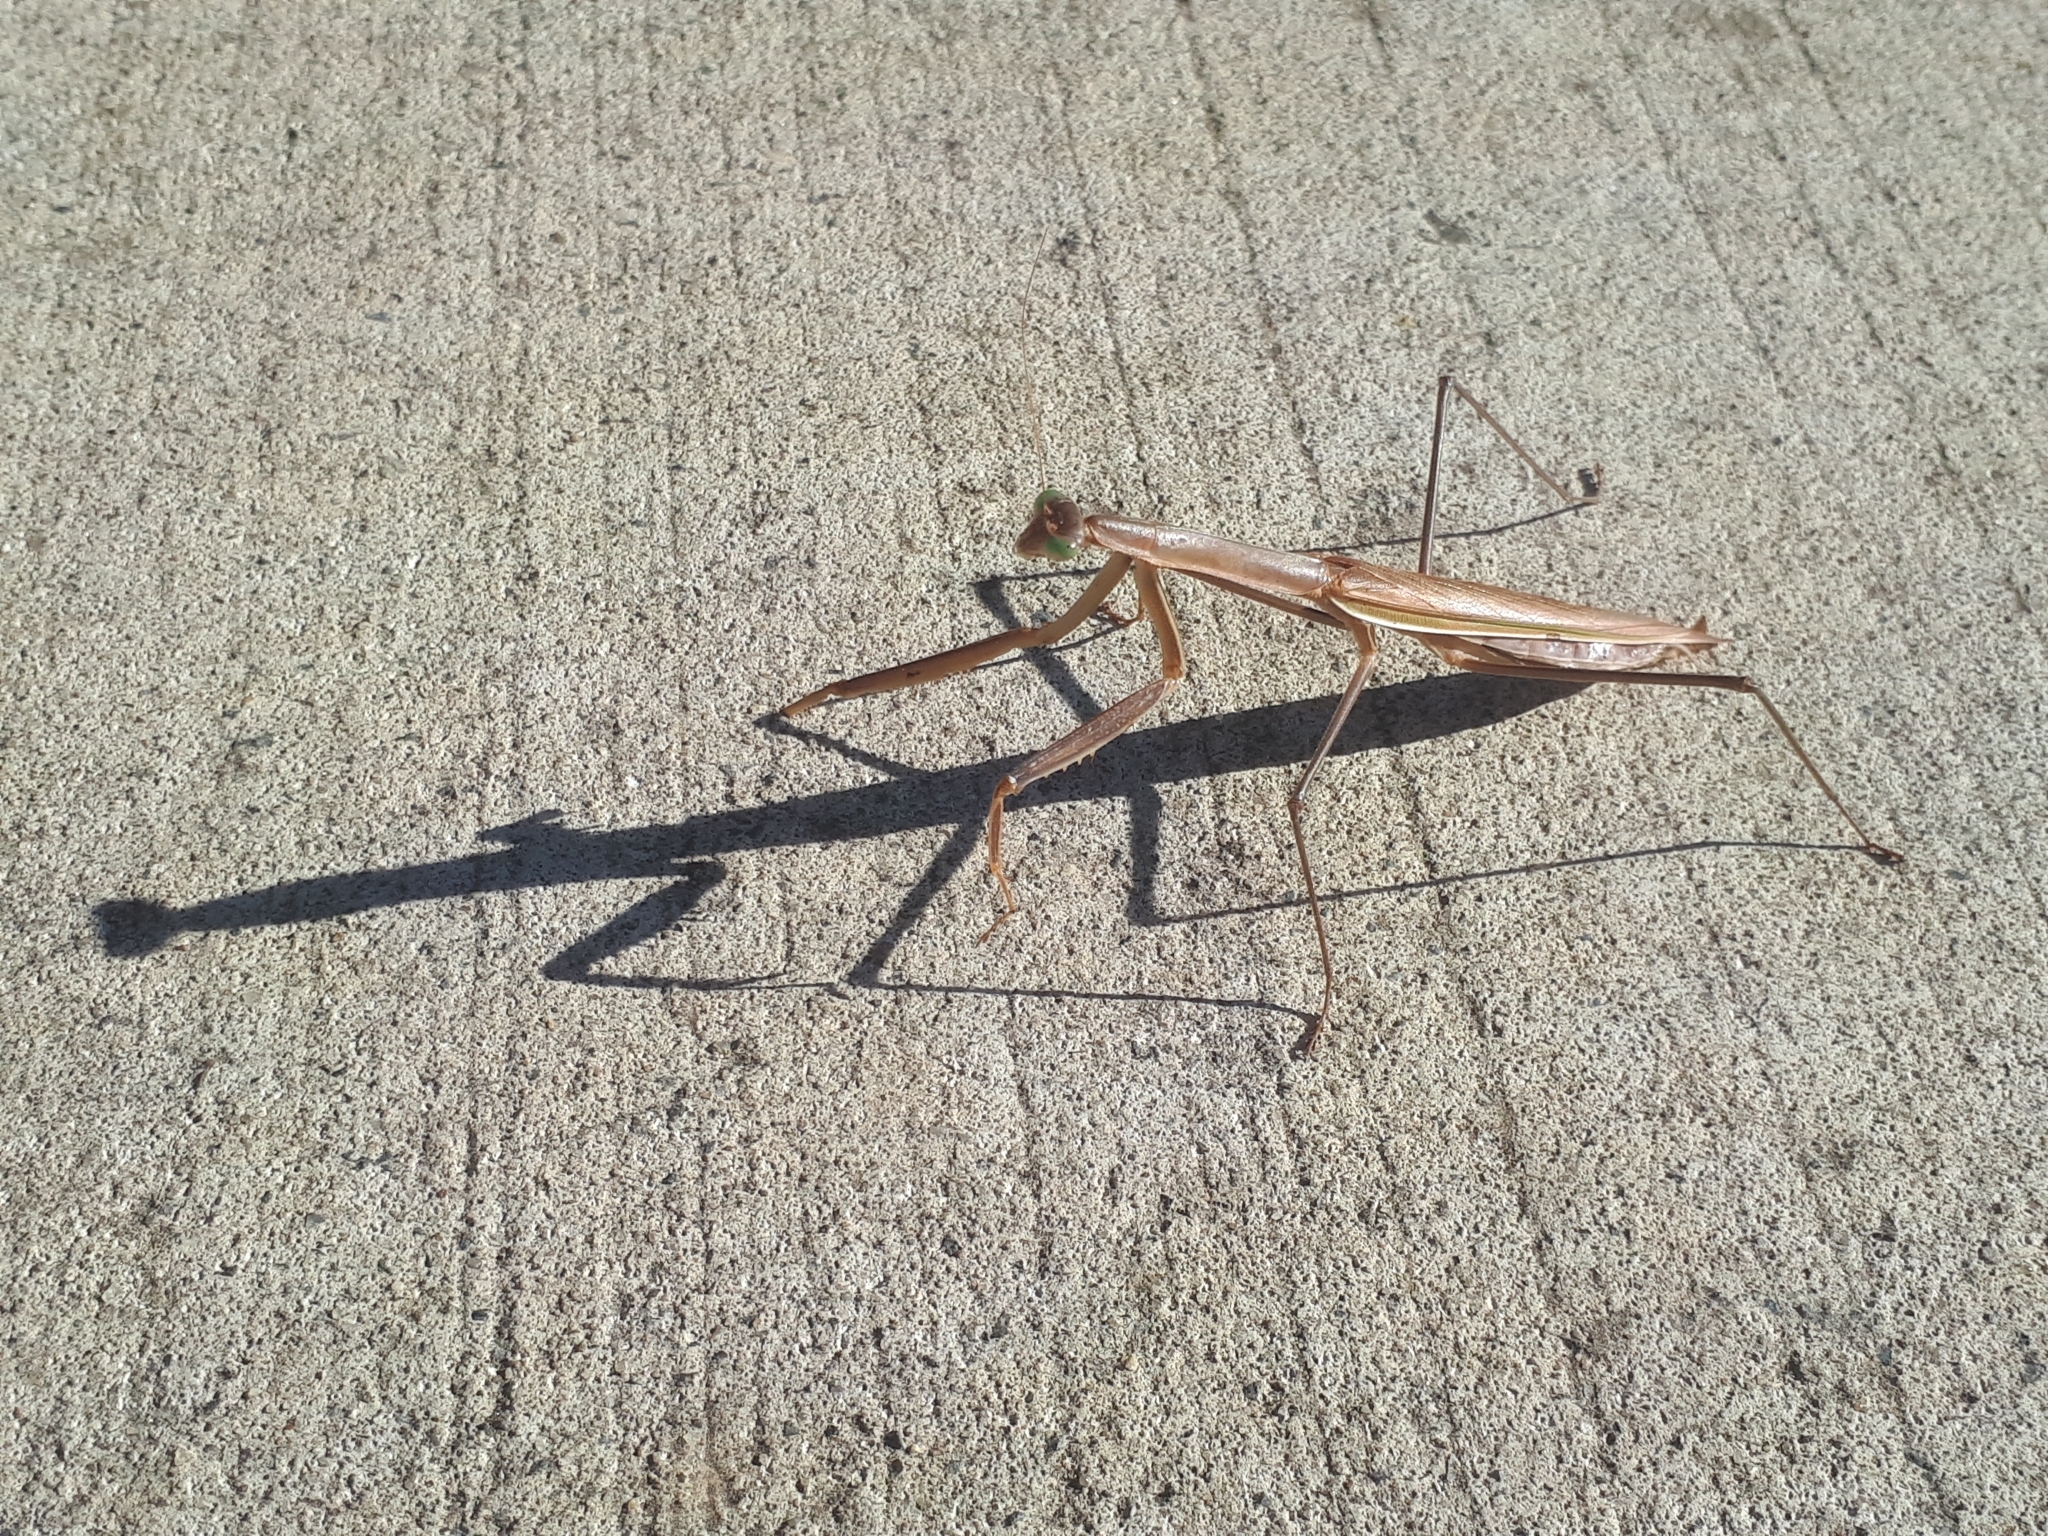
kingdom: Animalia
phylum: Arthropoda
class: Insecta
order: Mantodea
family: Mantidae
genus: Tenodera
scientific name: Tenodera australasiae
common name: Purple-winged mantis
